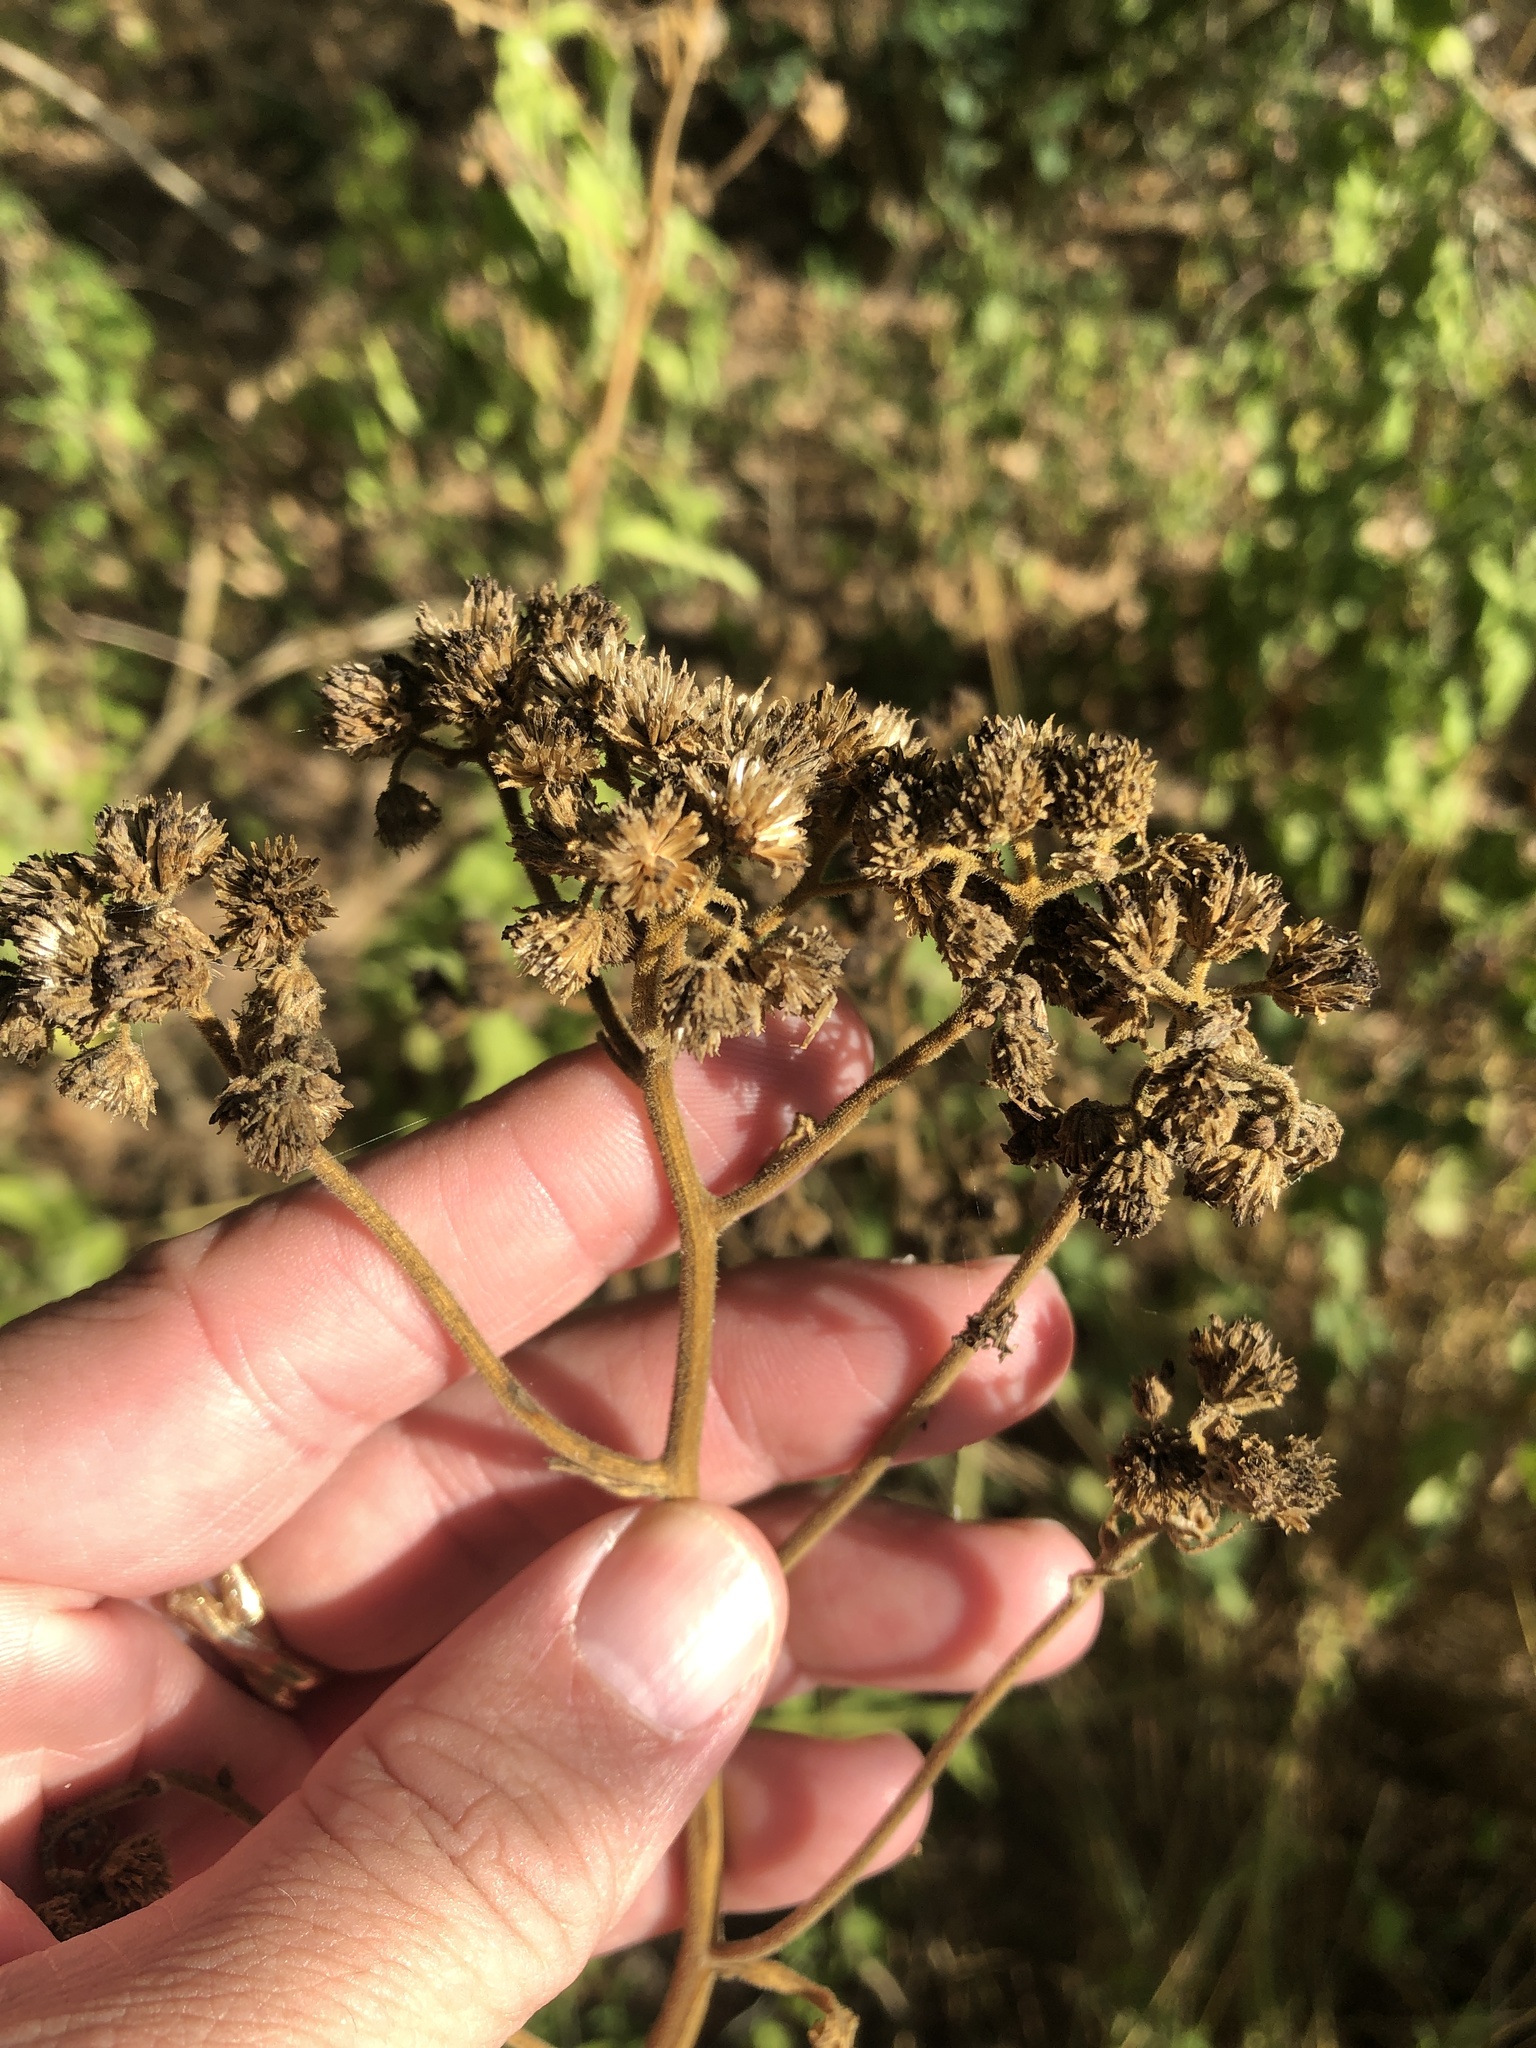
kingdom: Plantae
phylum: Tracheophyta
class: Magnoliopsida
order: Asterales
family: Asteraceae
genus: Verbesina
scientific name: Verbesina microptera
